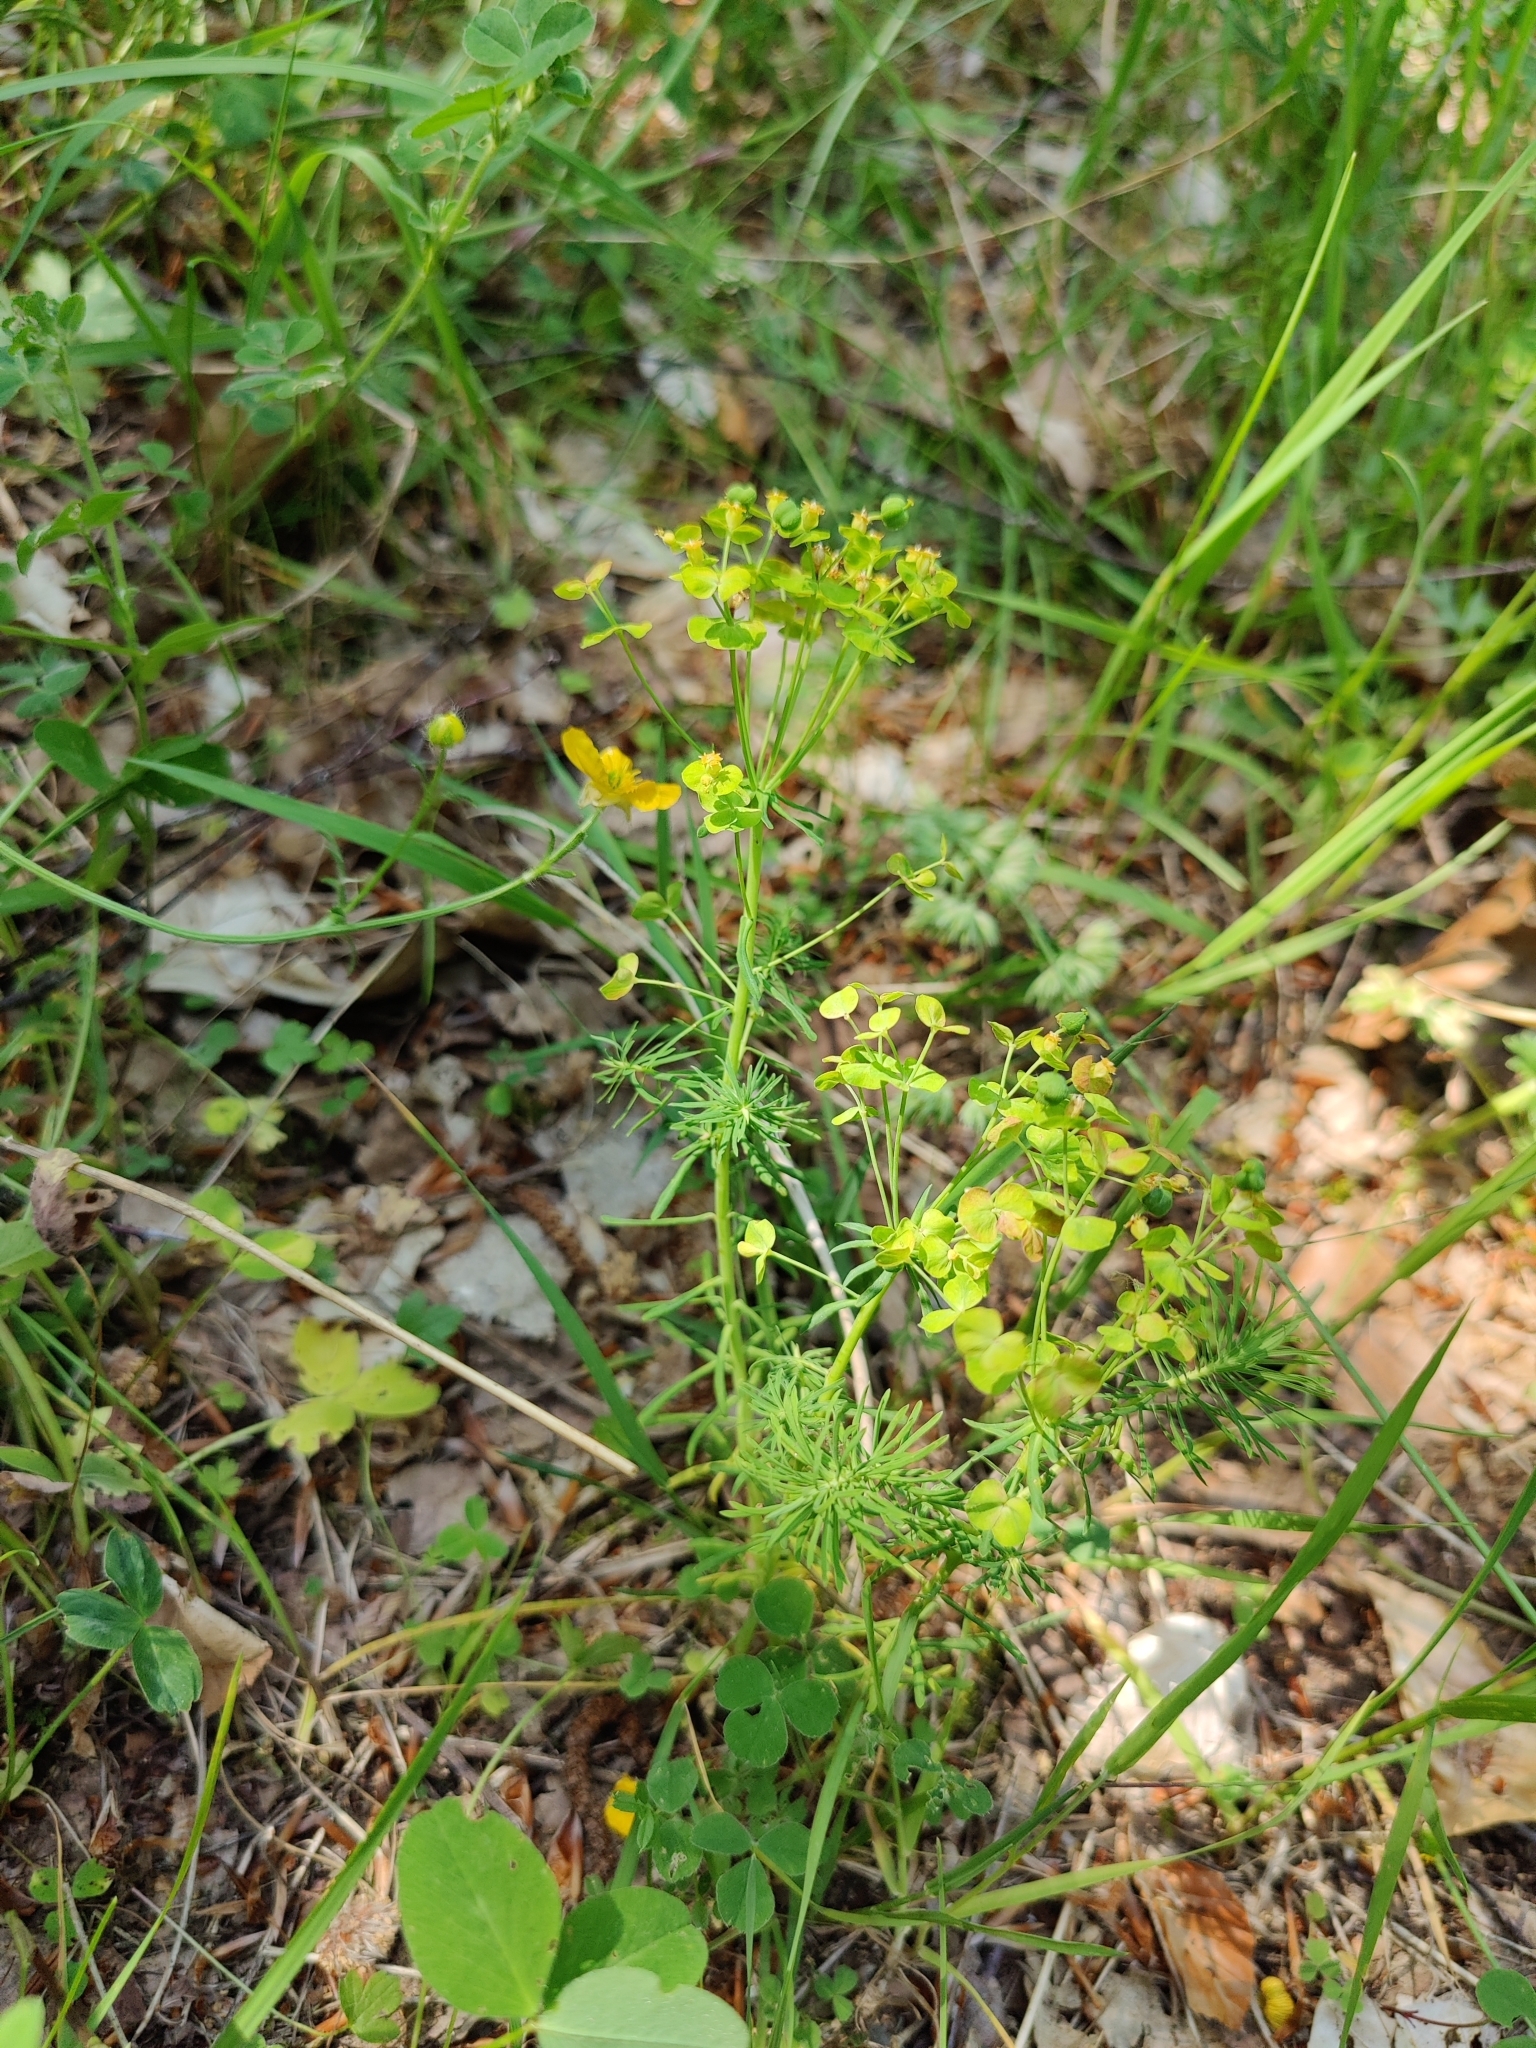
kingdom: Plantae
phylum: Tracheophyta
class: Magnoliopsida
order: Malpighiales
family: Euphorbiaceae
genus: Euphorbia
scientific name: Euphorbia cyparissias
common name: Cypress spurge
